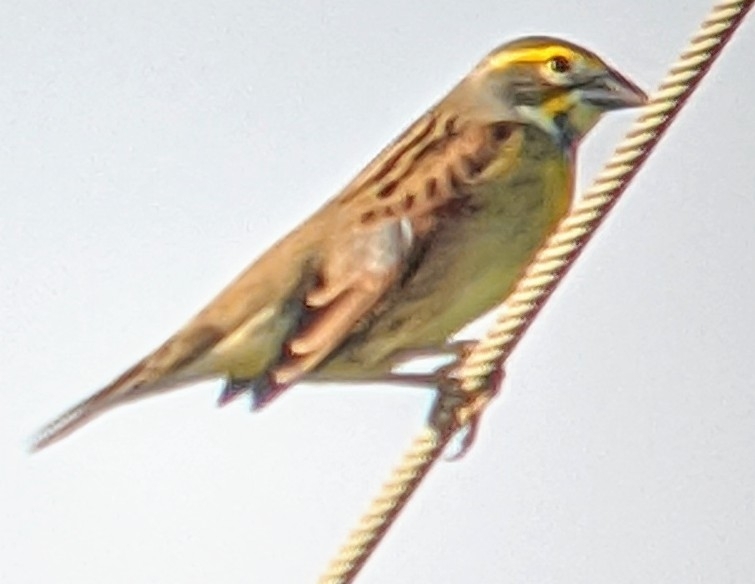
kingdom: Animalia
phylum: Chordata
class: Aves
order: Passeriformes
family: Cardinalidae
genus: Spiza
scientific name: Spiza americana
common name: Dickcissel
